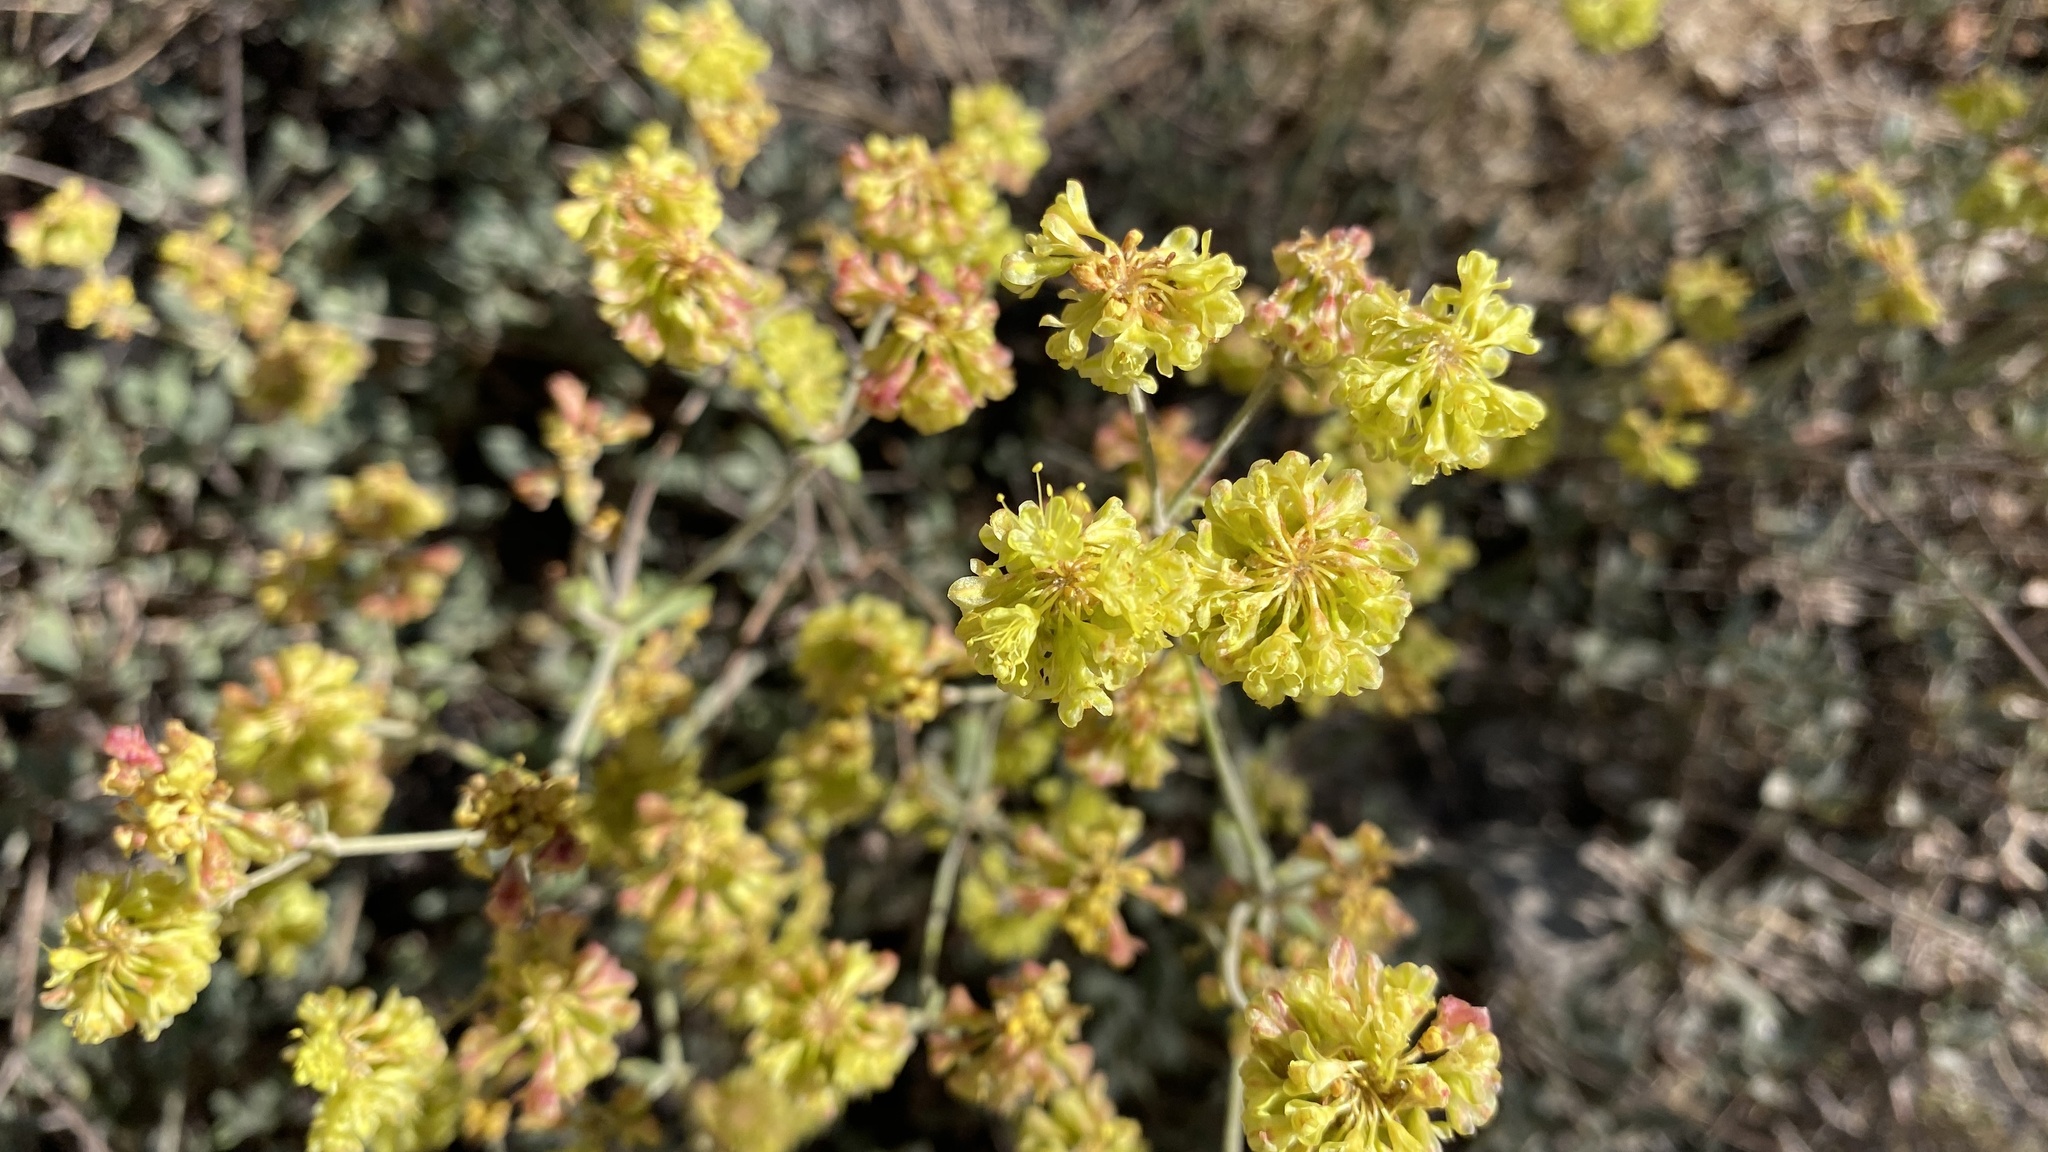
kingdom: Plantae
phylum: Tracheophyta
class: Magnoliopsida
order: Caryophyllales
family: Polygonaceae
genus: Eriogonum
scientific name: Eriogonum umbellatum
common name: Sulfur-buckwheat
